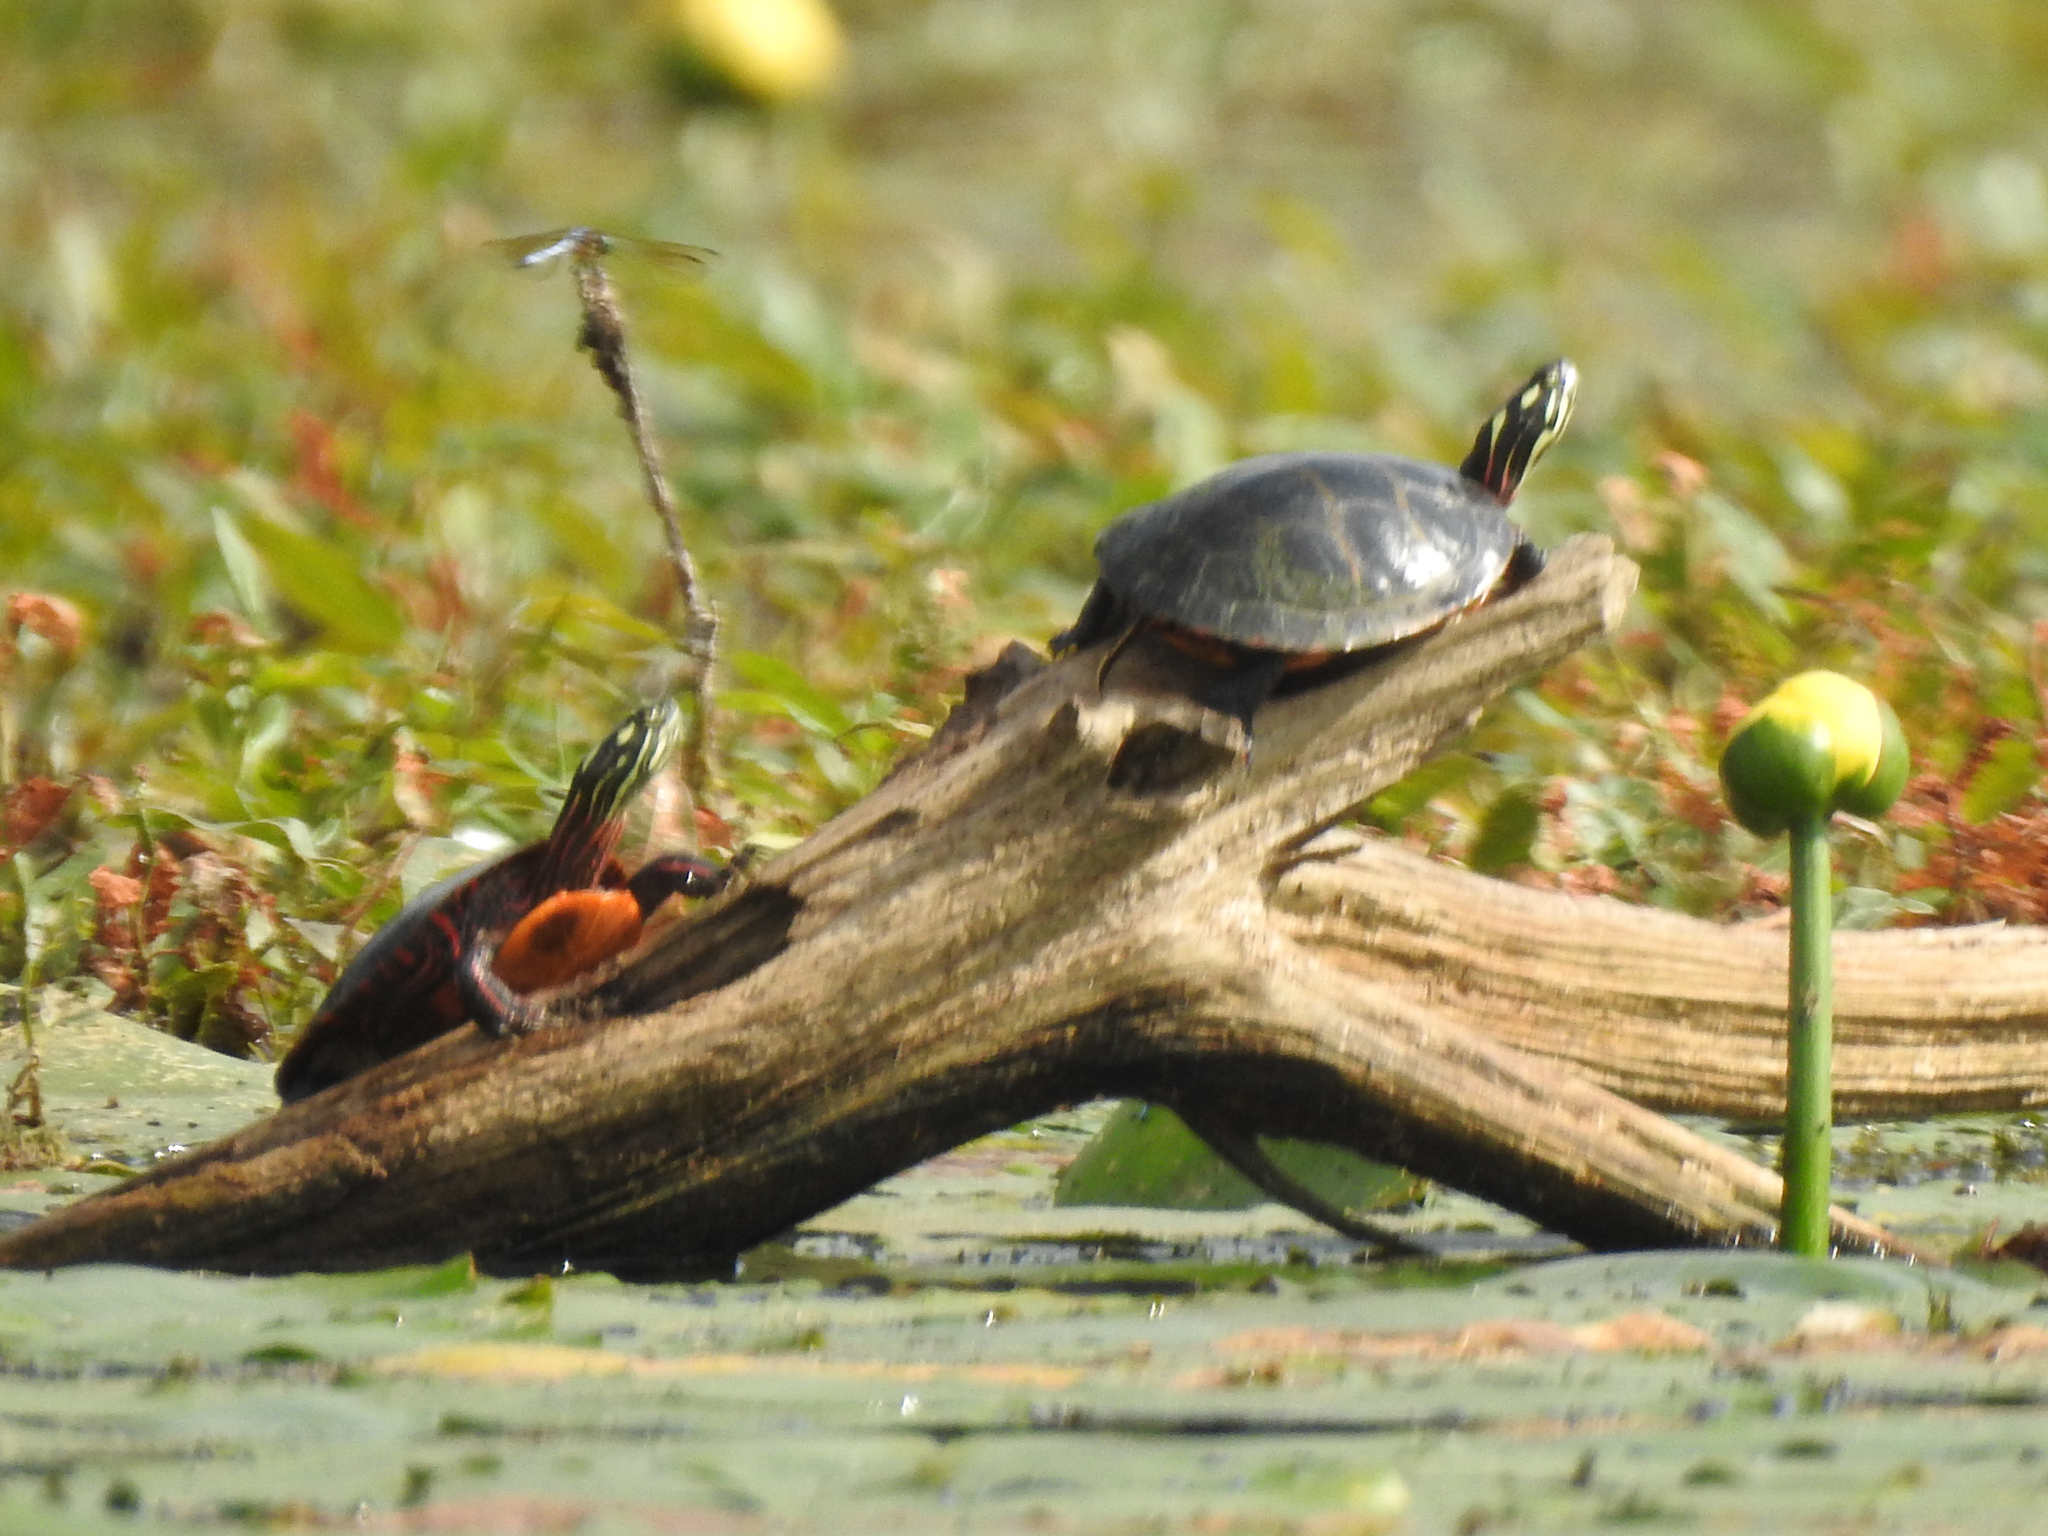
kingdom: Animalia
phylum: Chordata
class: Testudines
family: Emydidae
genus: Chrysemys
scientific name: Chrysemys picta
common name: Painted turtle
